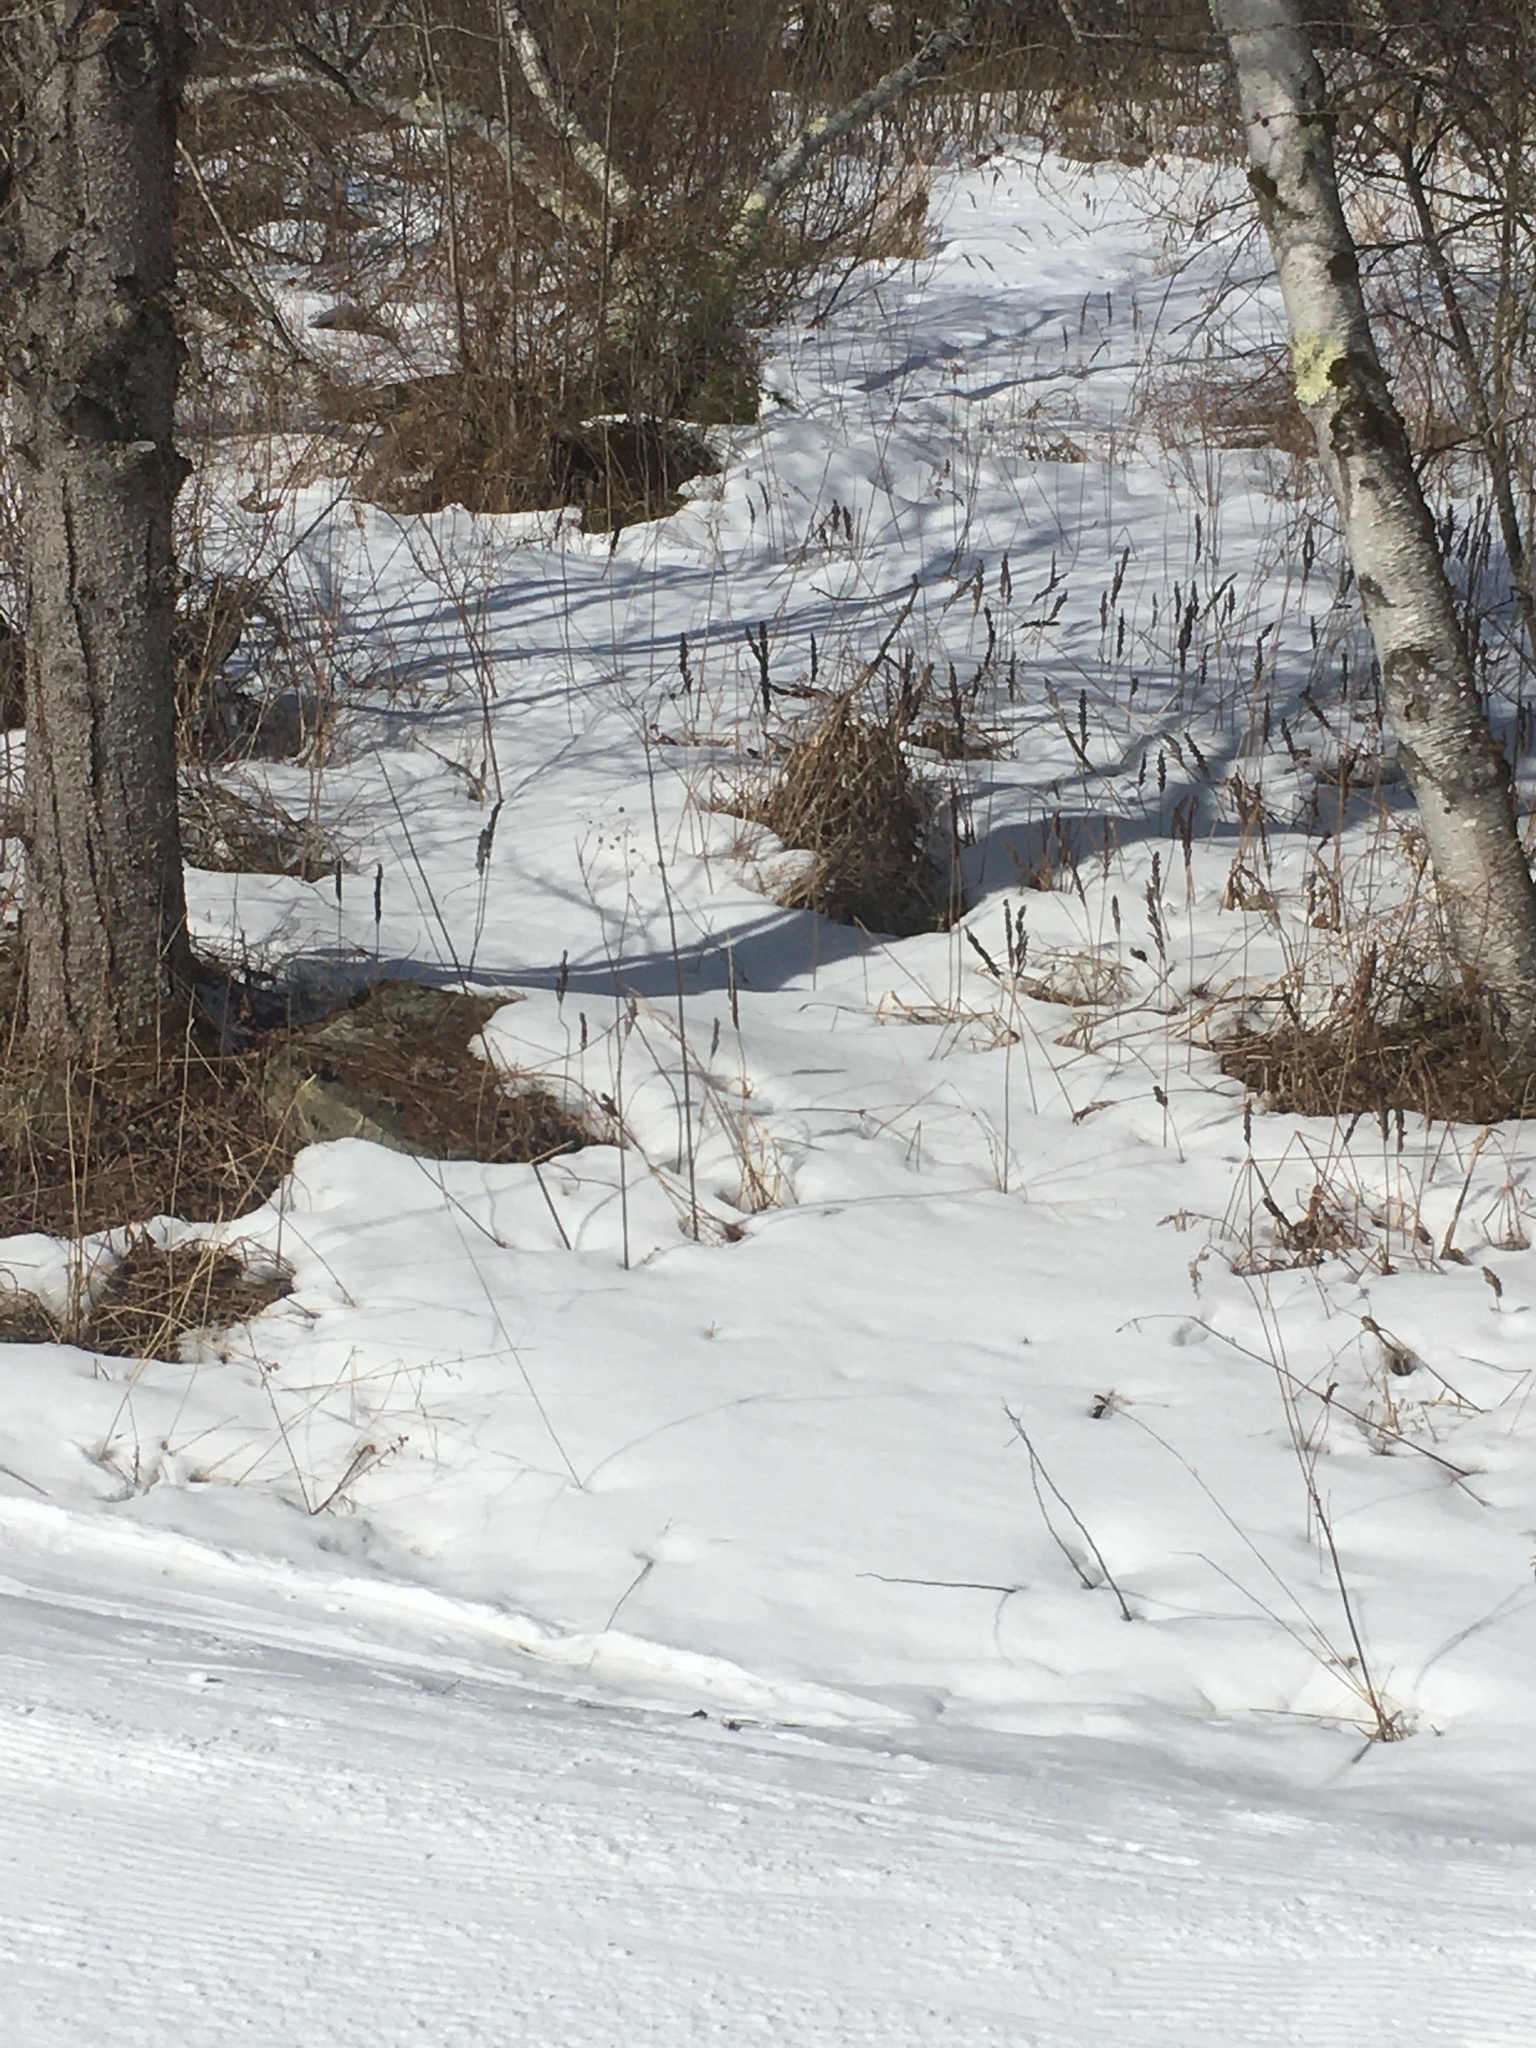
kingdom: Plantae
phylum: Tracheophyta
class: Polypodiopsida
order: Polypodiales
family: Onocleaceae
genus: Onoclea
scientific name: Onoclea sensibilis
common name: Sensitive fern
